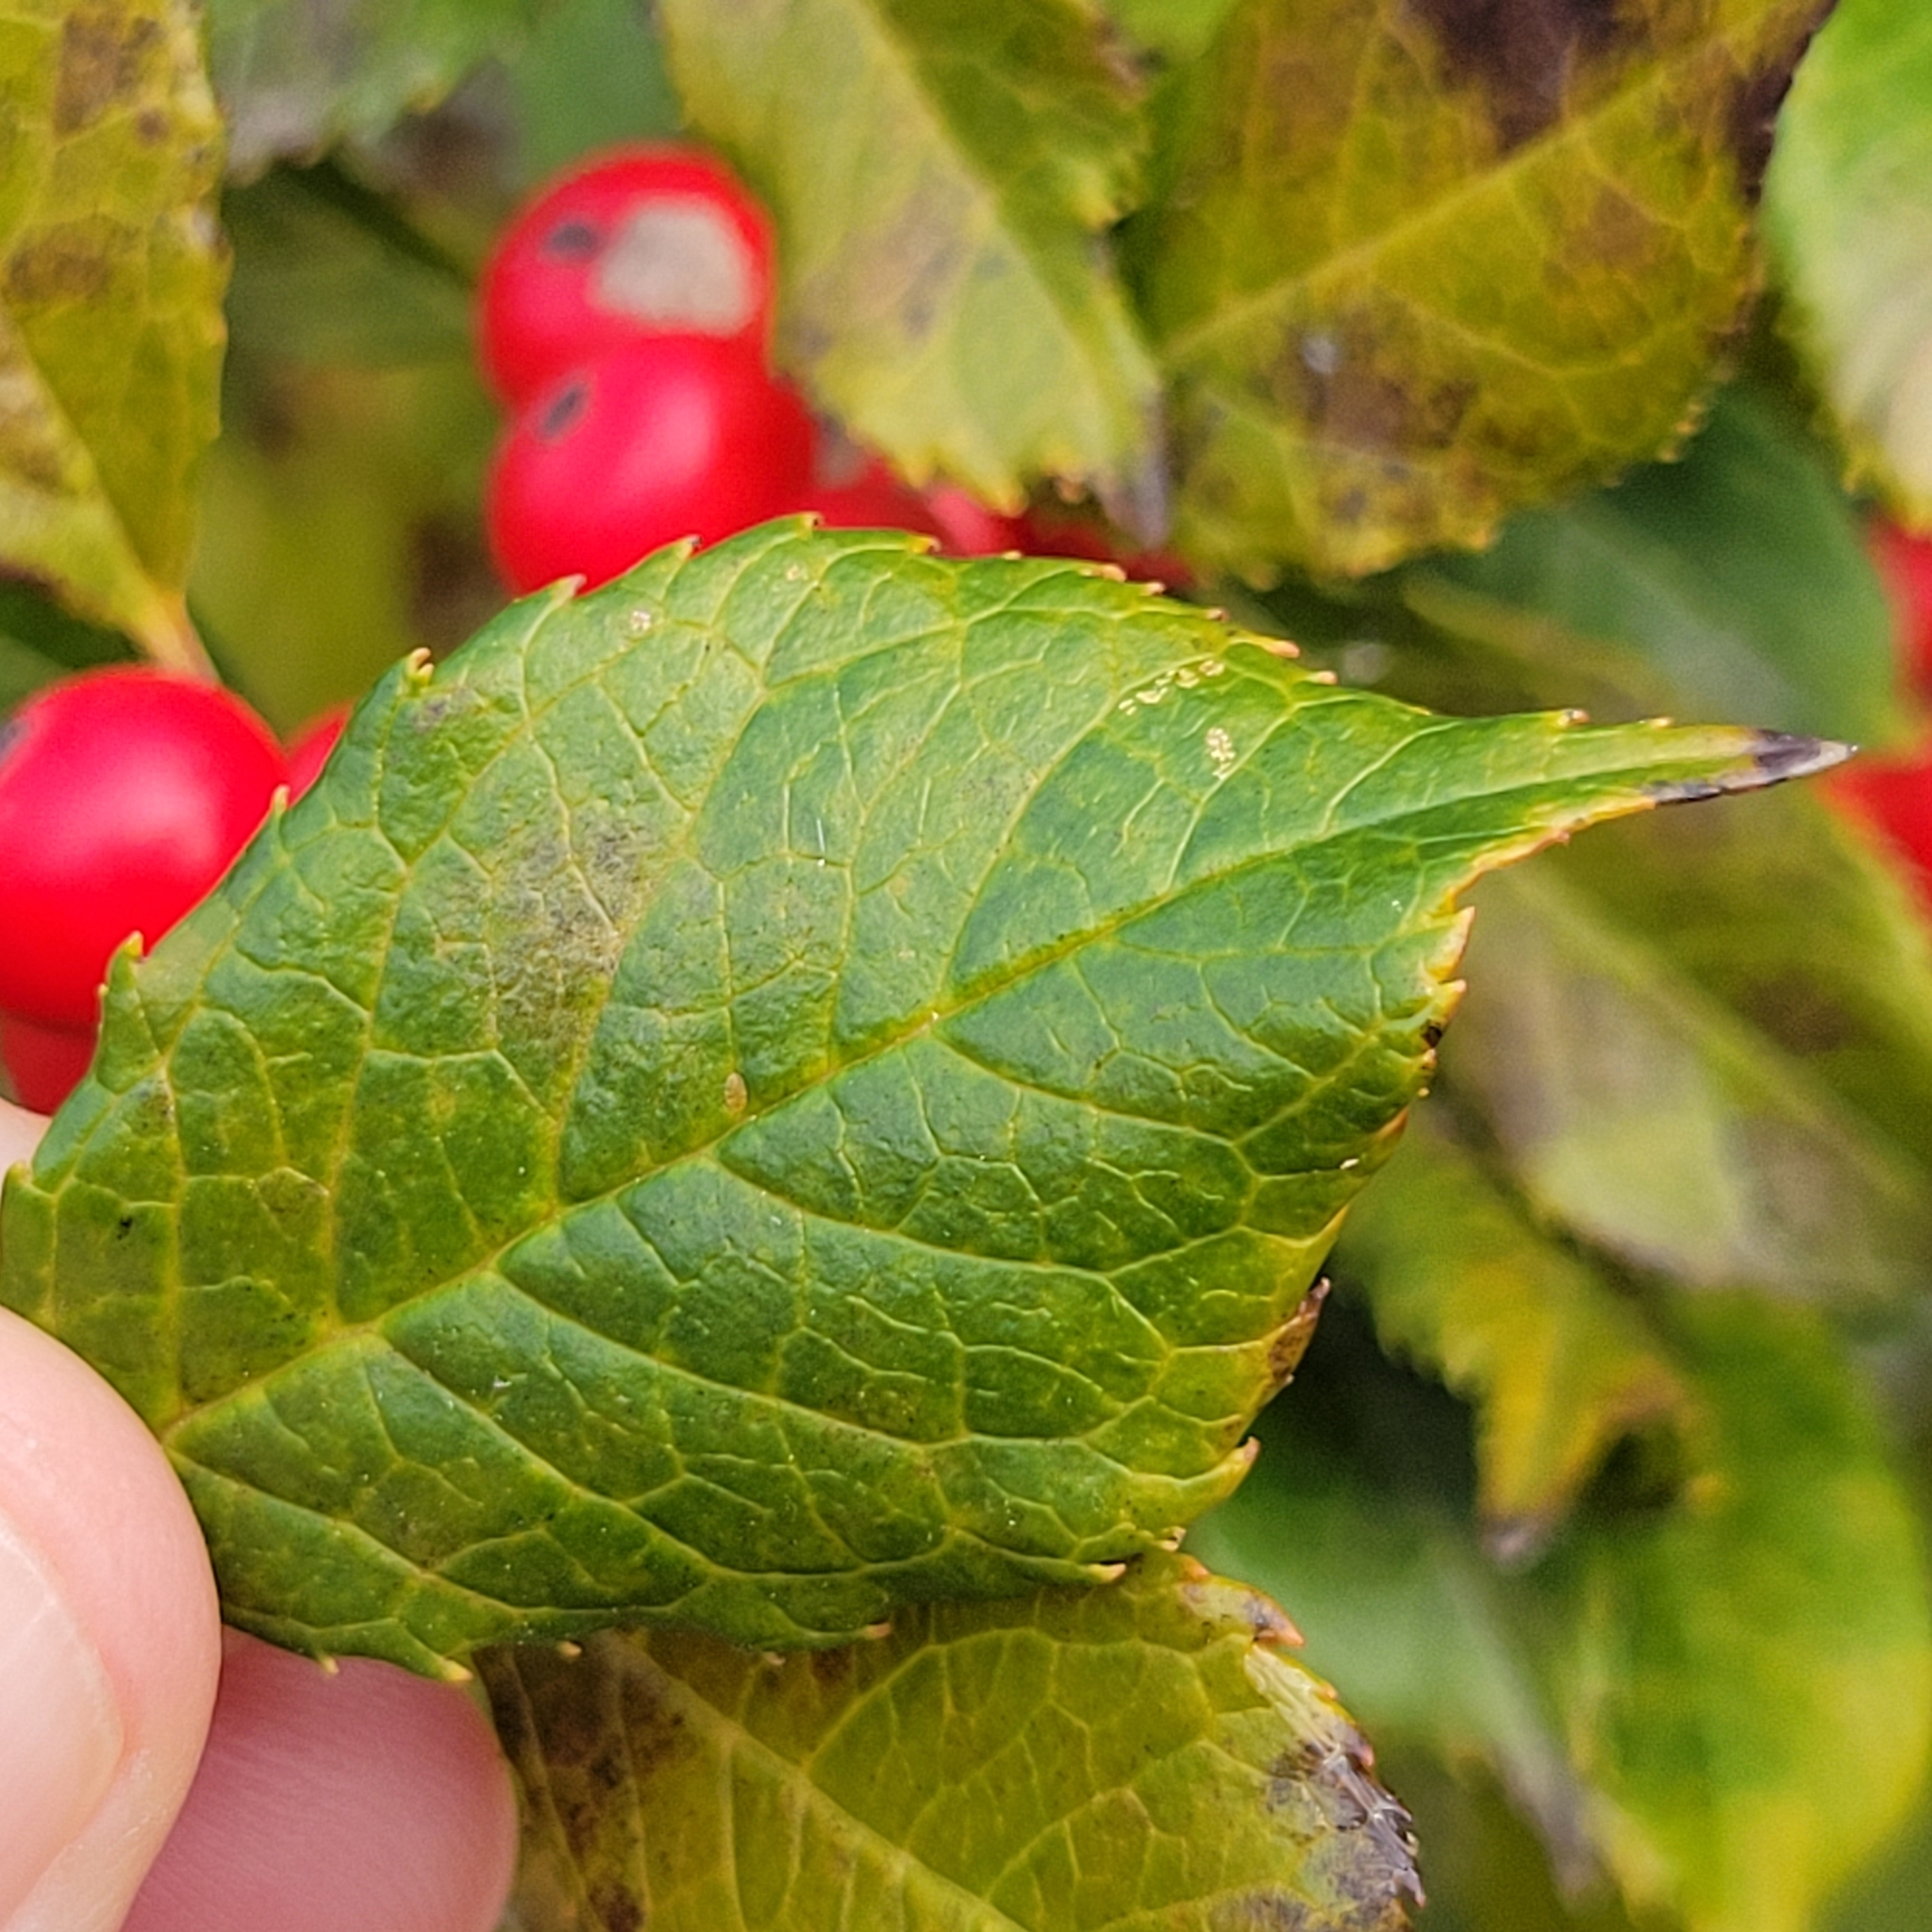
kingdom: Plantae
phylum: Tracheophyta
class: Magnoliopsida
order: Aquifoliales
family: Aquifoliaceae
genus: Ilex
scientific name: Ilex verticillata
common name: Virginia winterberry
